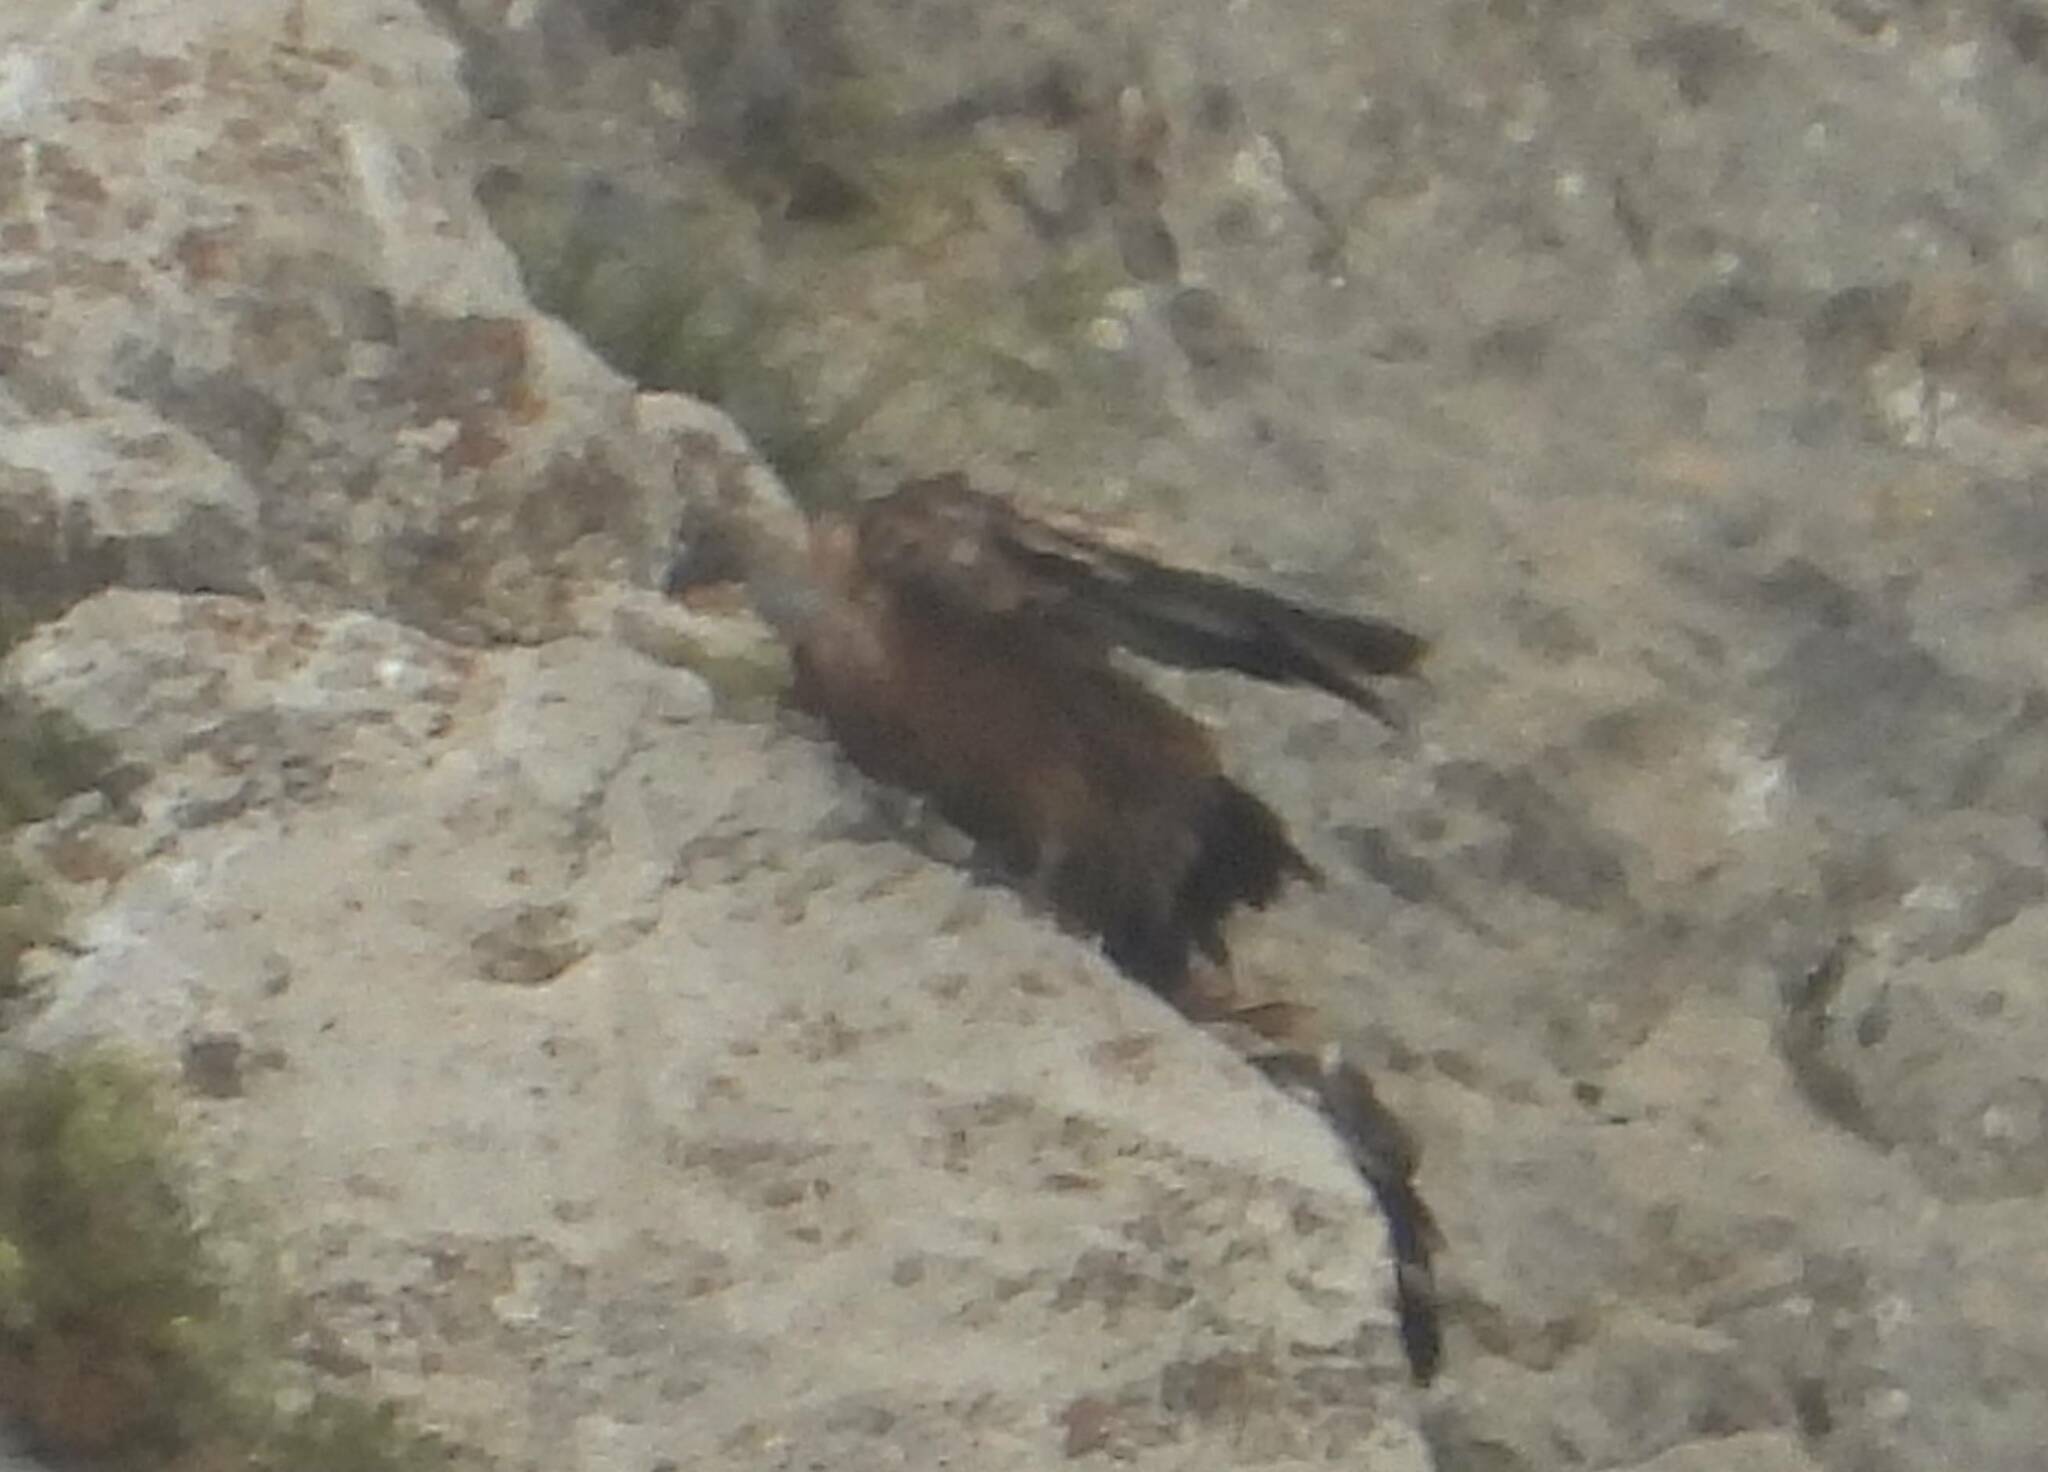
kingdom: Animalia
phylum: Chordata
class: Aves
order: Accipitriformes
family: Accipitridae
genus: Gyps
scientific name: Gyps fulvus
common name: Griffon vulture
